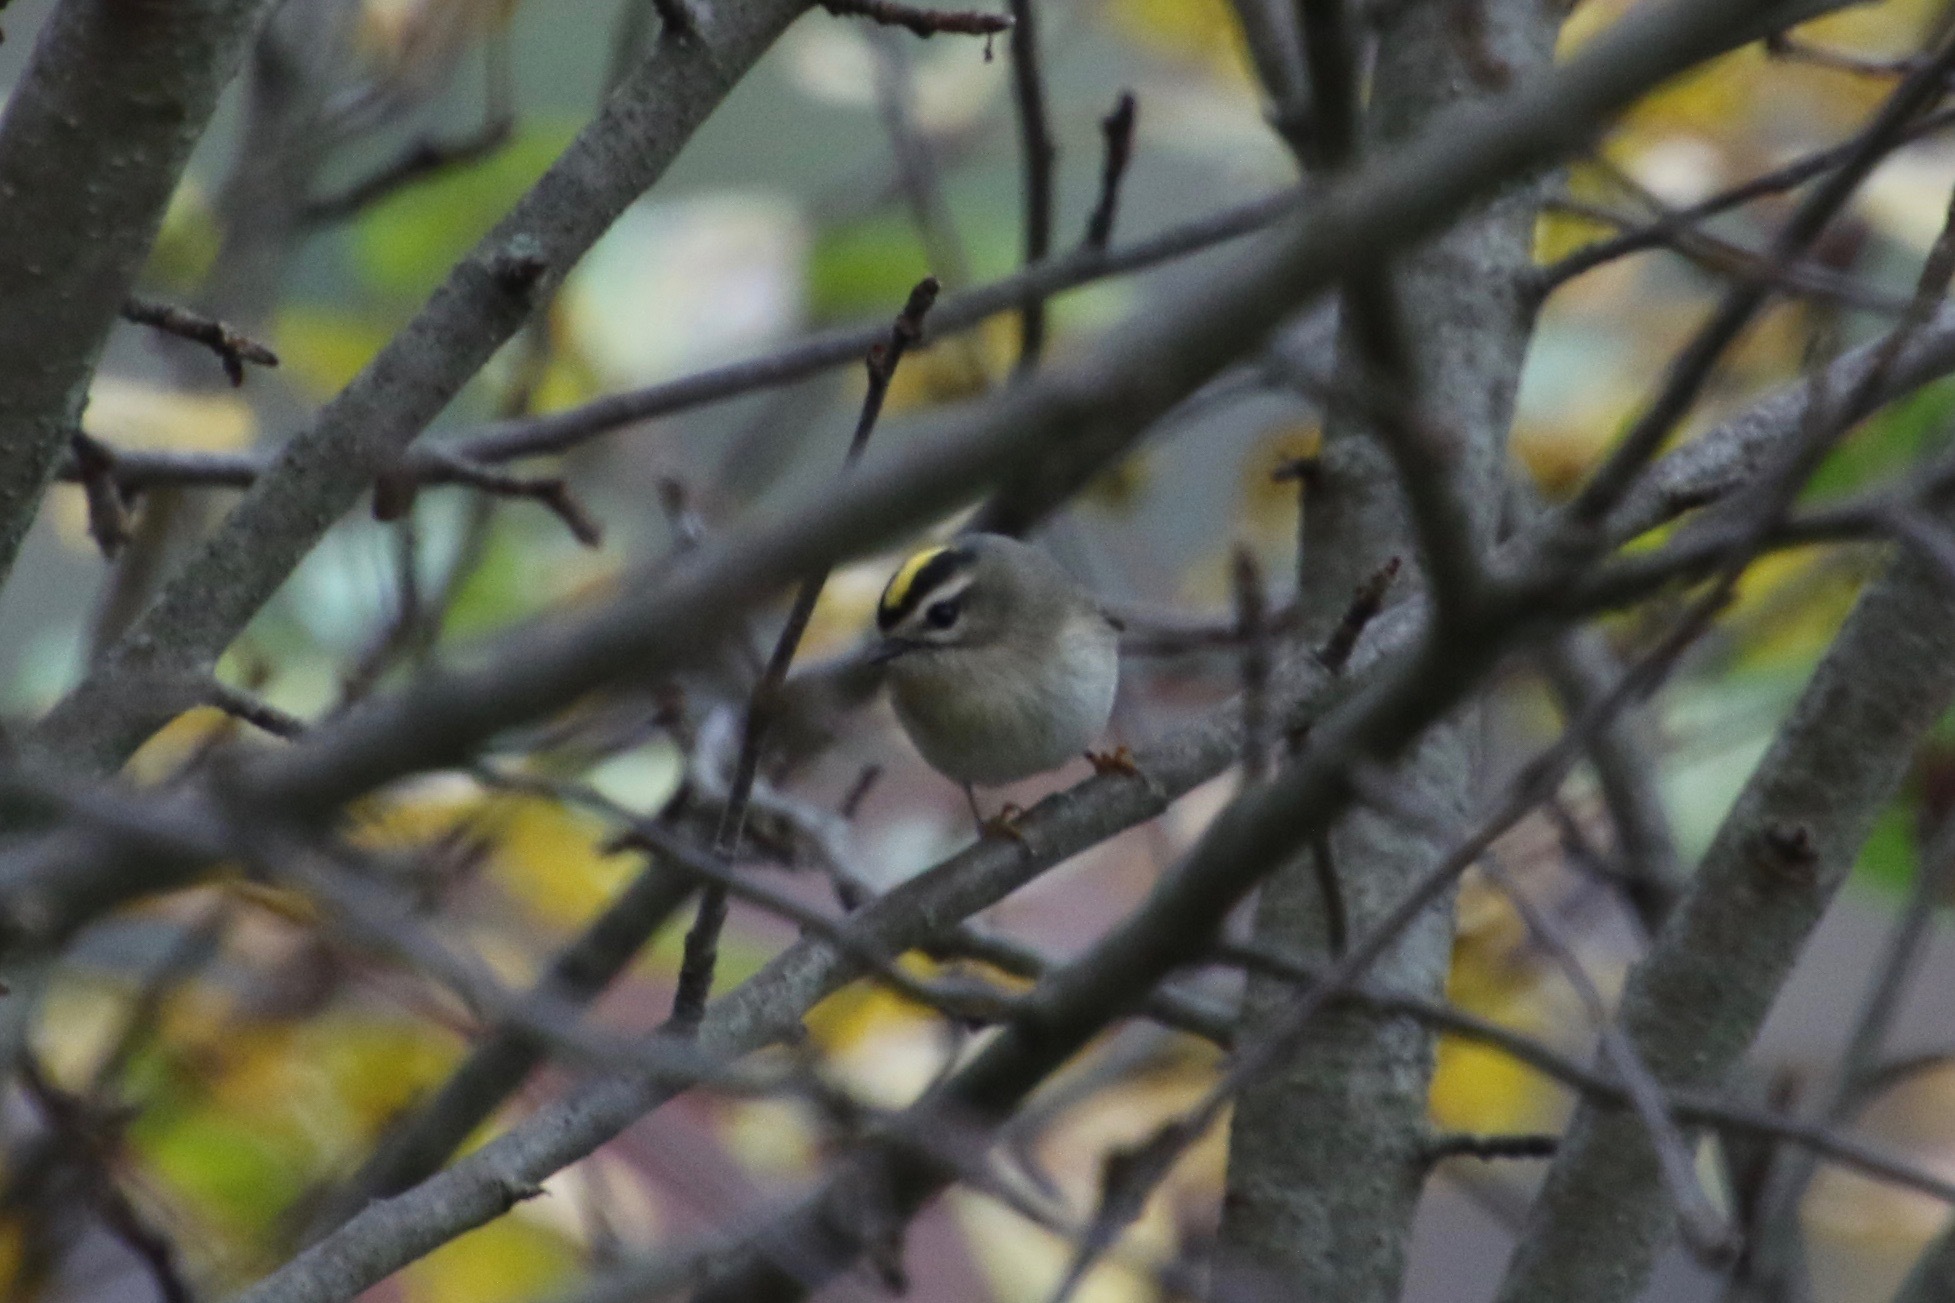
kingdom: Animalia
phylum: Chordata
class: Aves
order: Passeriformes
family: Regulidae
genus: Regulus
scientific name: Regulus satrapa
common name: Golden-crowned kinglet
